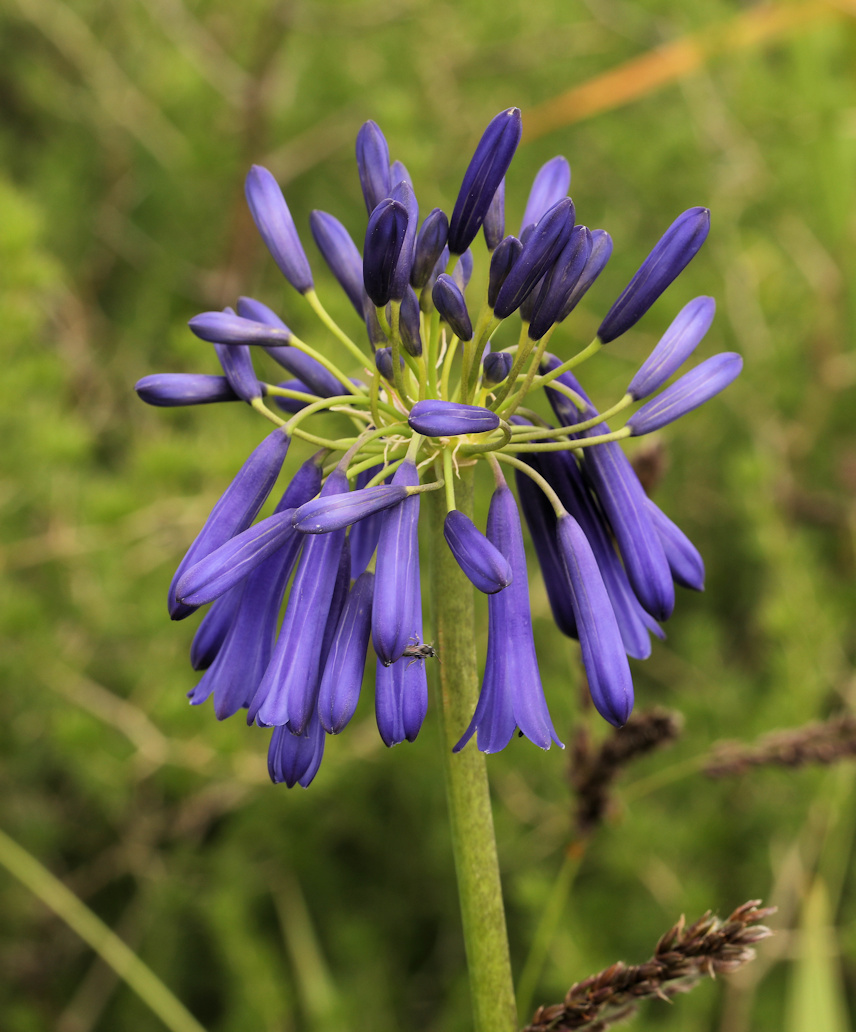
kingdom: Plantae
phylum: Tracheophyta
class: Liliopsida
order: Asparagales
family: Amaryllidaceae
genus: Agapanthus
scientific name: Agapanthus inapertus
